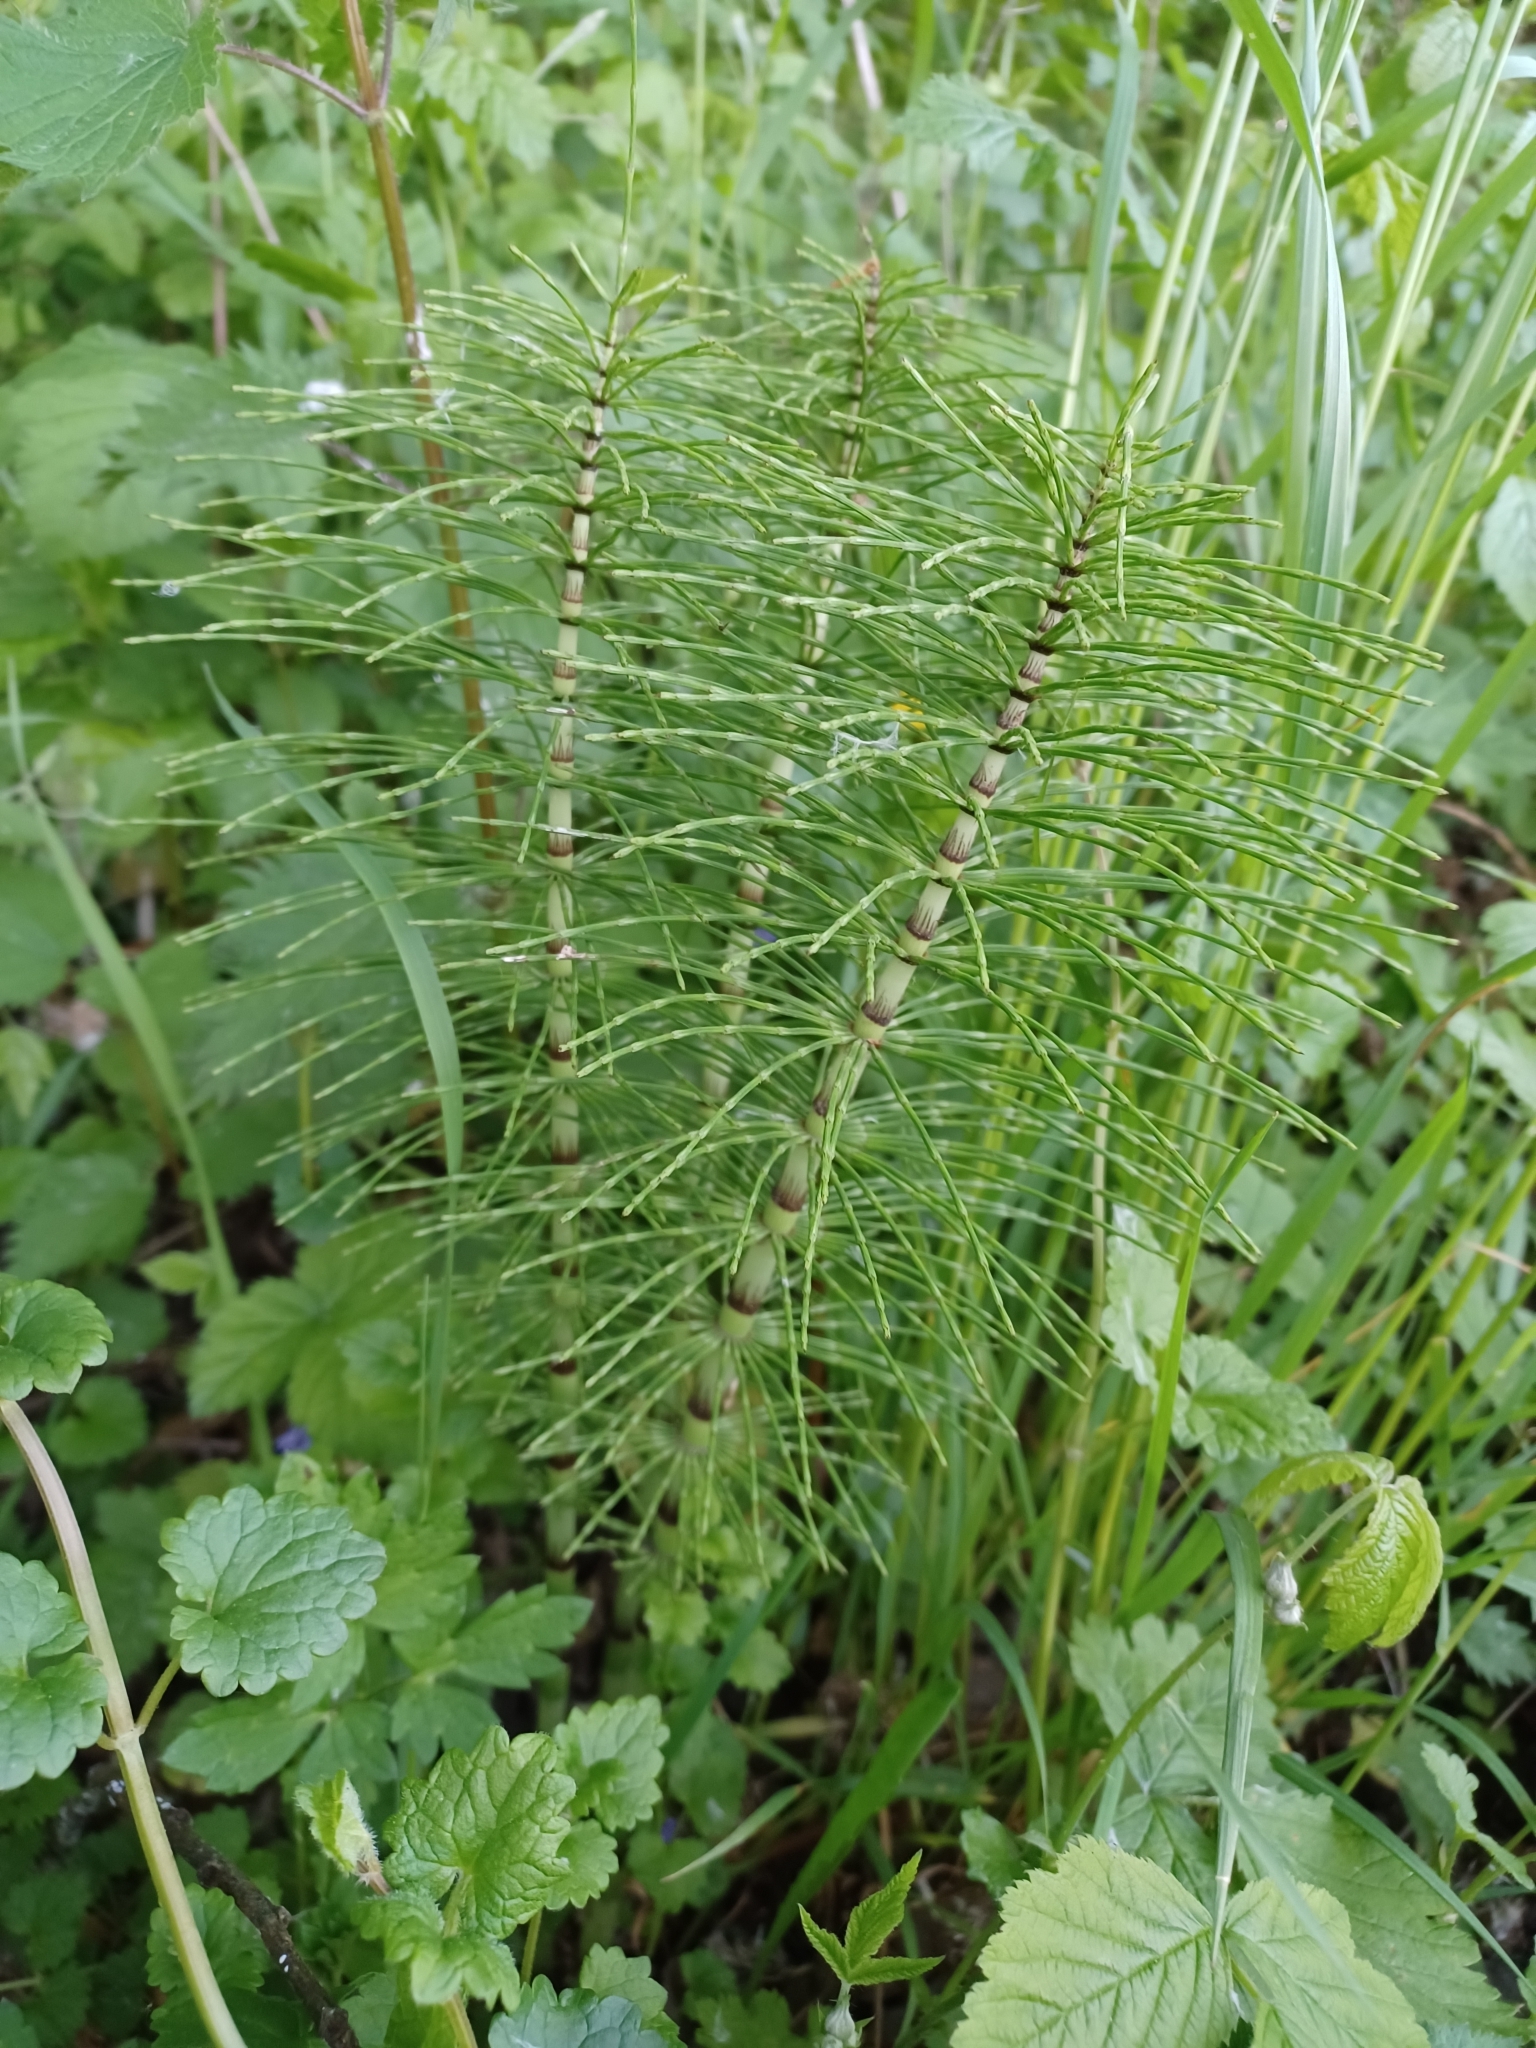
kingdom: Plantae
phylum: Tracheophyta
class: Polypodiopsida
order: Equisetales
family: Equisetaceae
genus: Equisetum
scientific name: Equisetum telmateia
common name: Great horsetail
